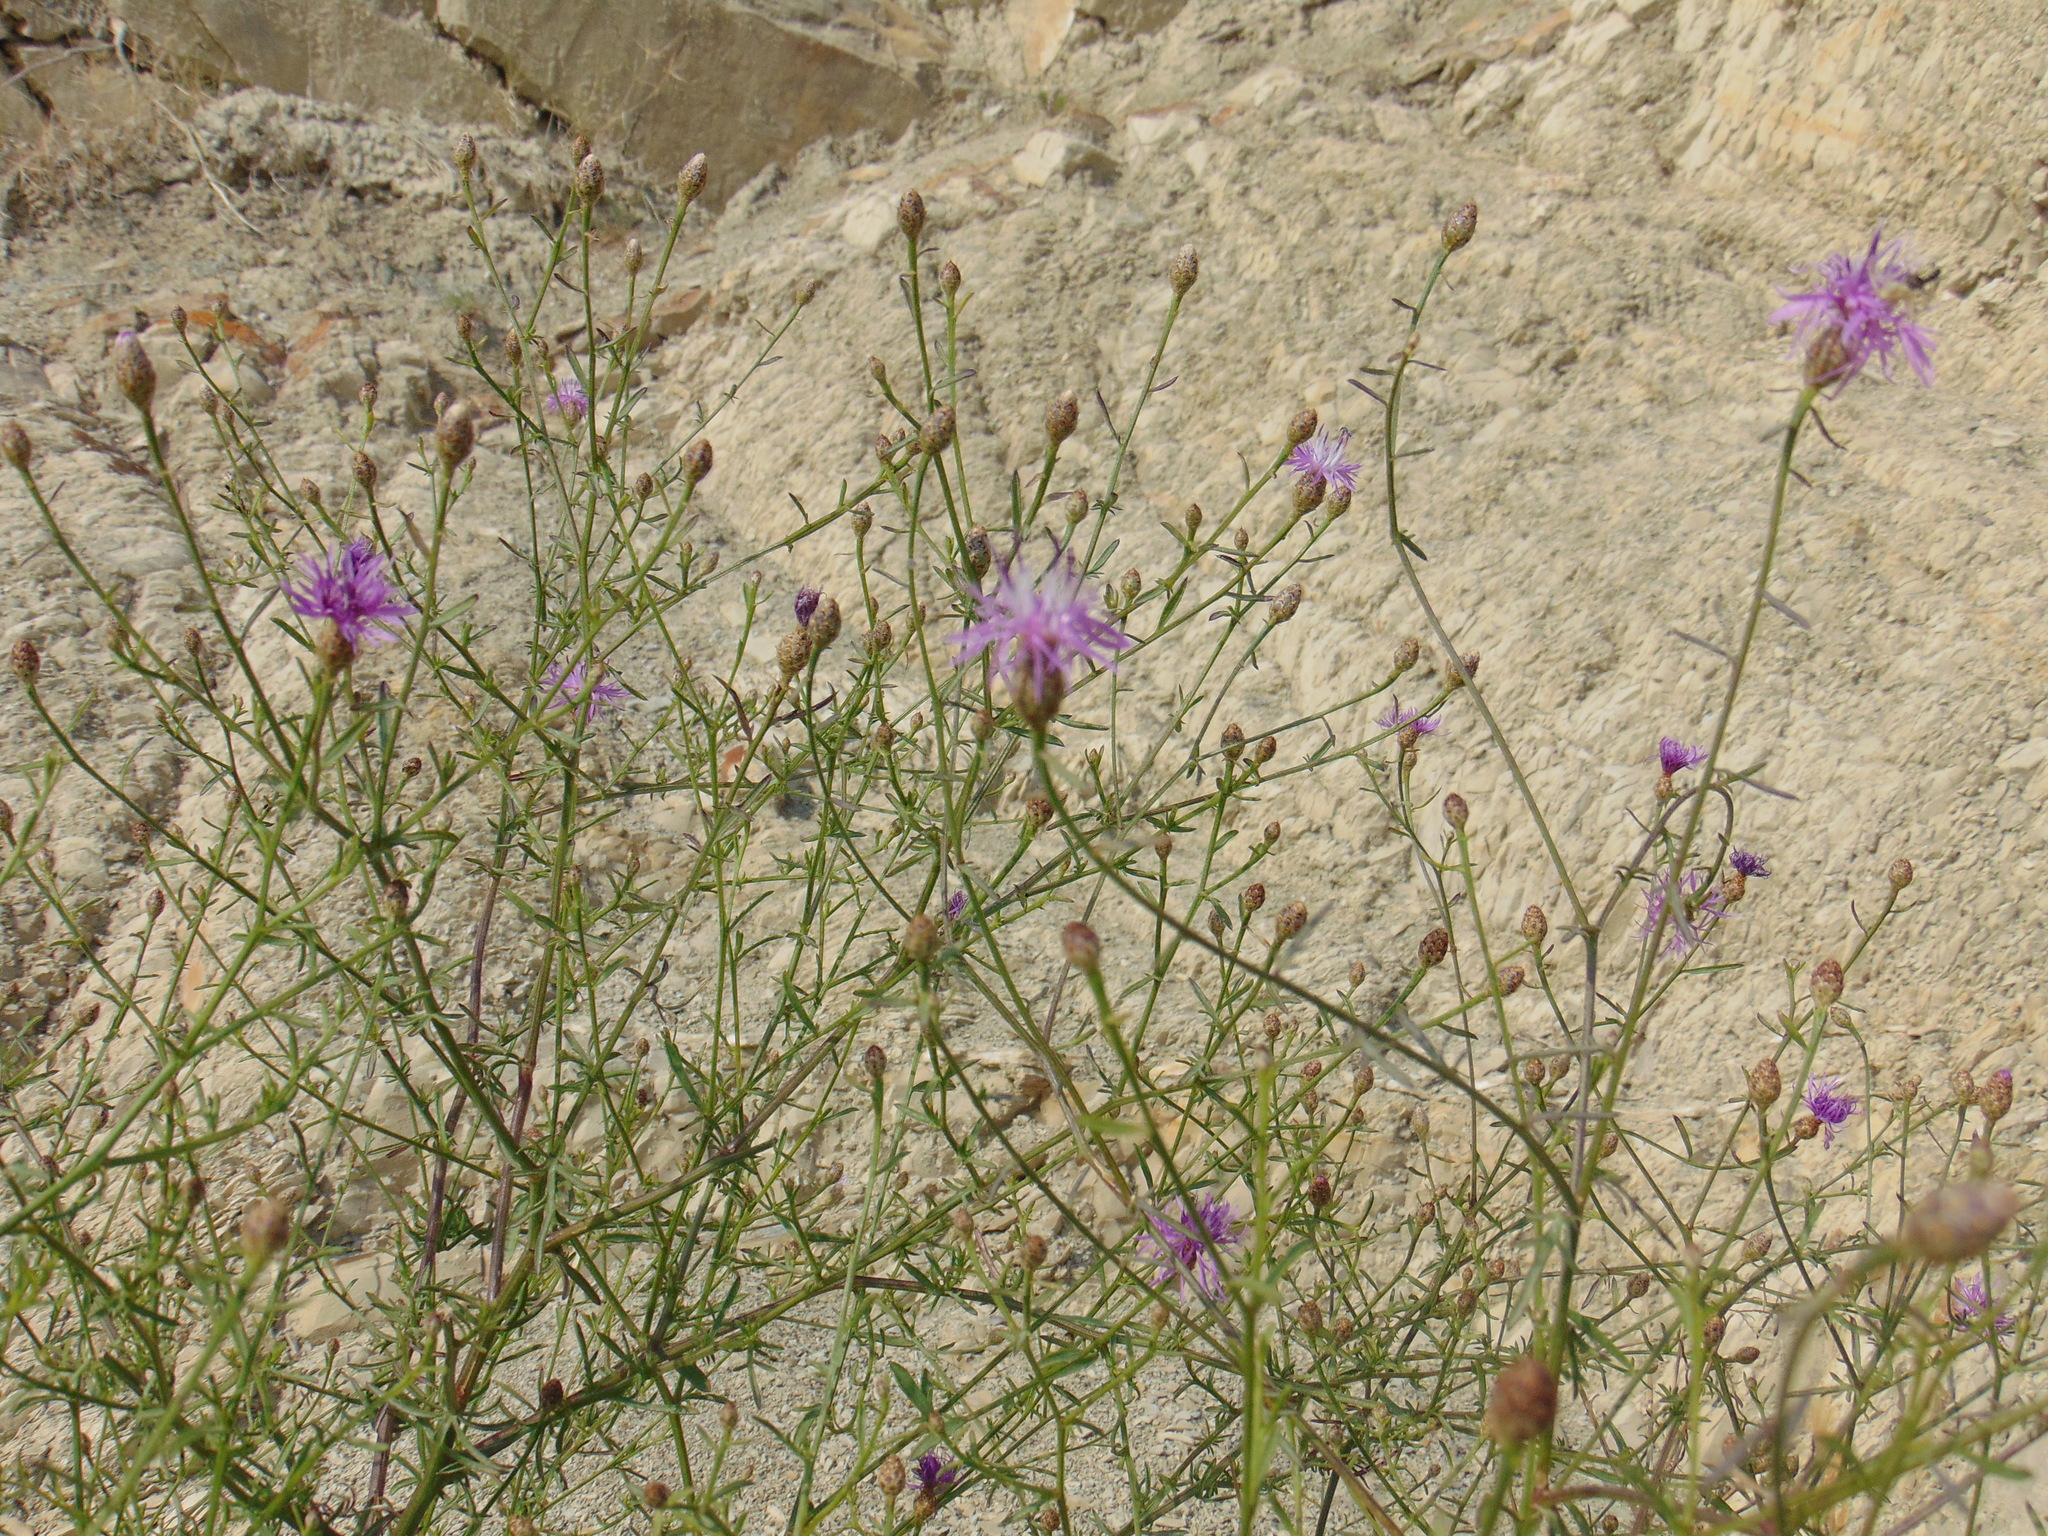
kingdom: Plantae
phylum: Tracheophyta
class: Magnoliopsida
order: Asterales
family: Asteraceae
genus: Centaurea
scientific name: Centaurea glaberrima
